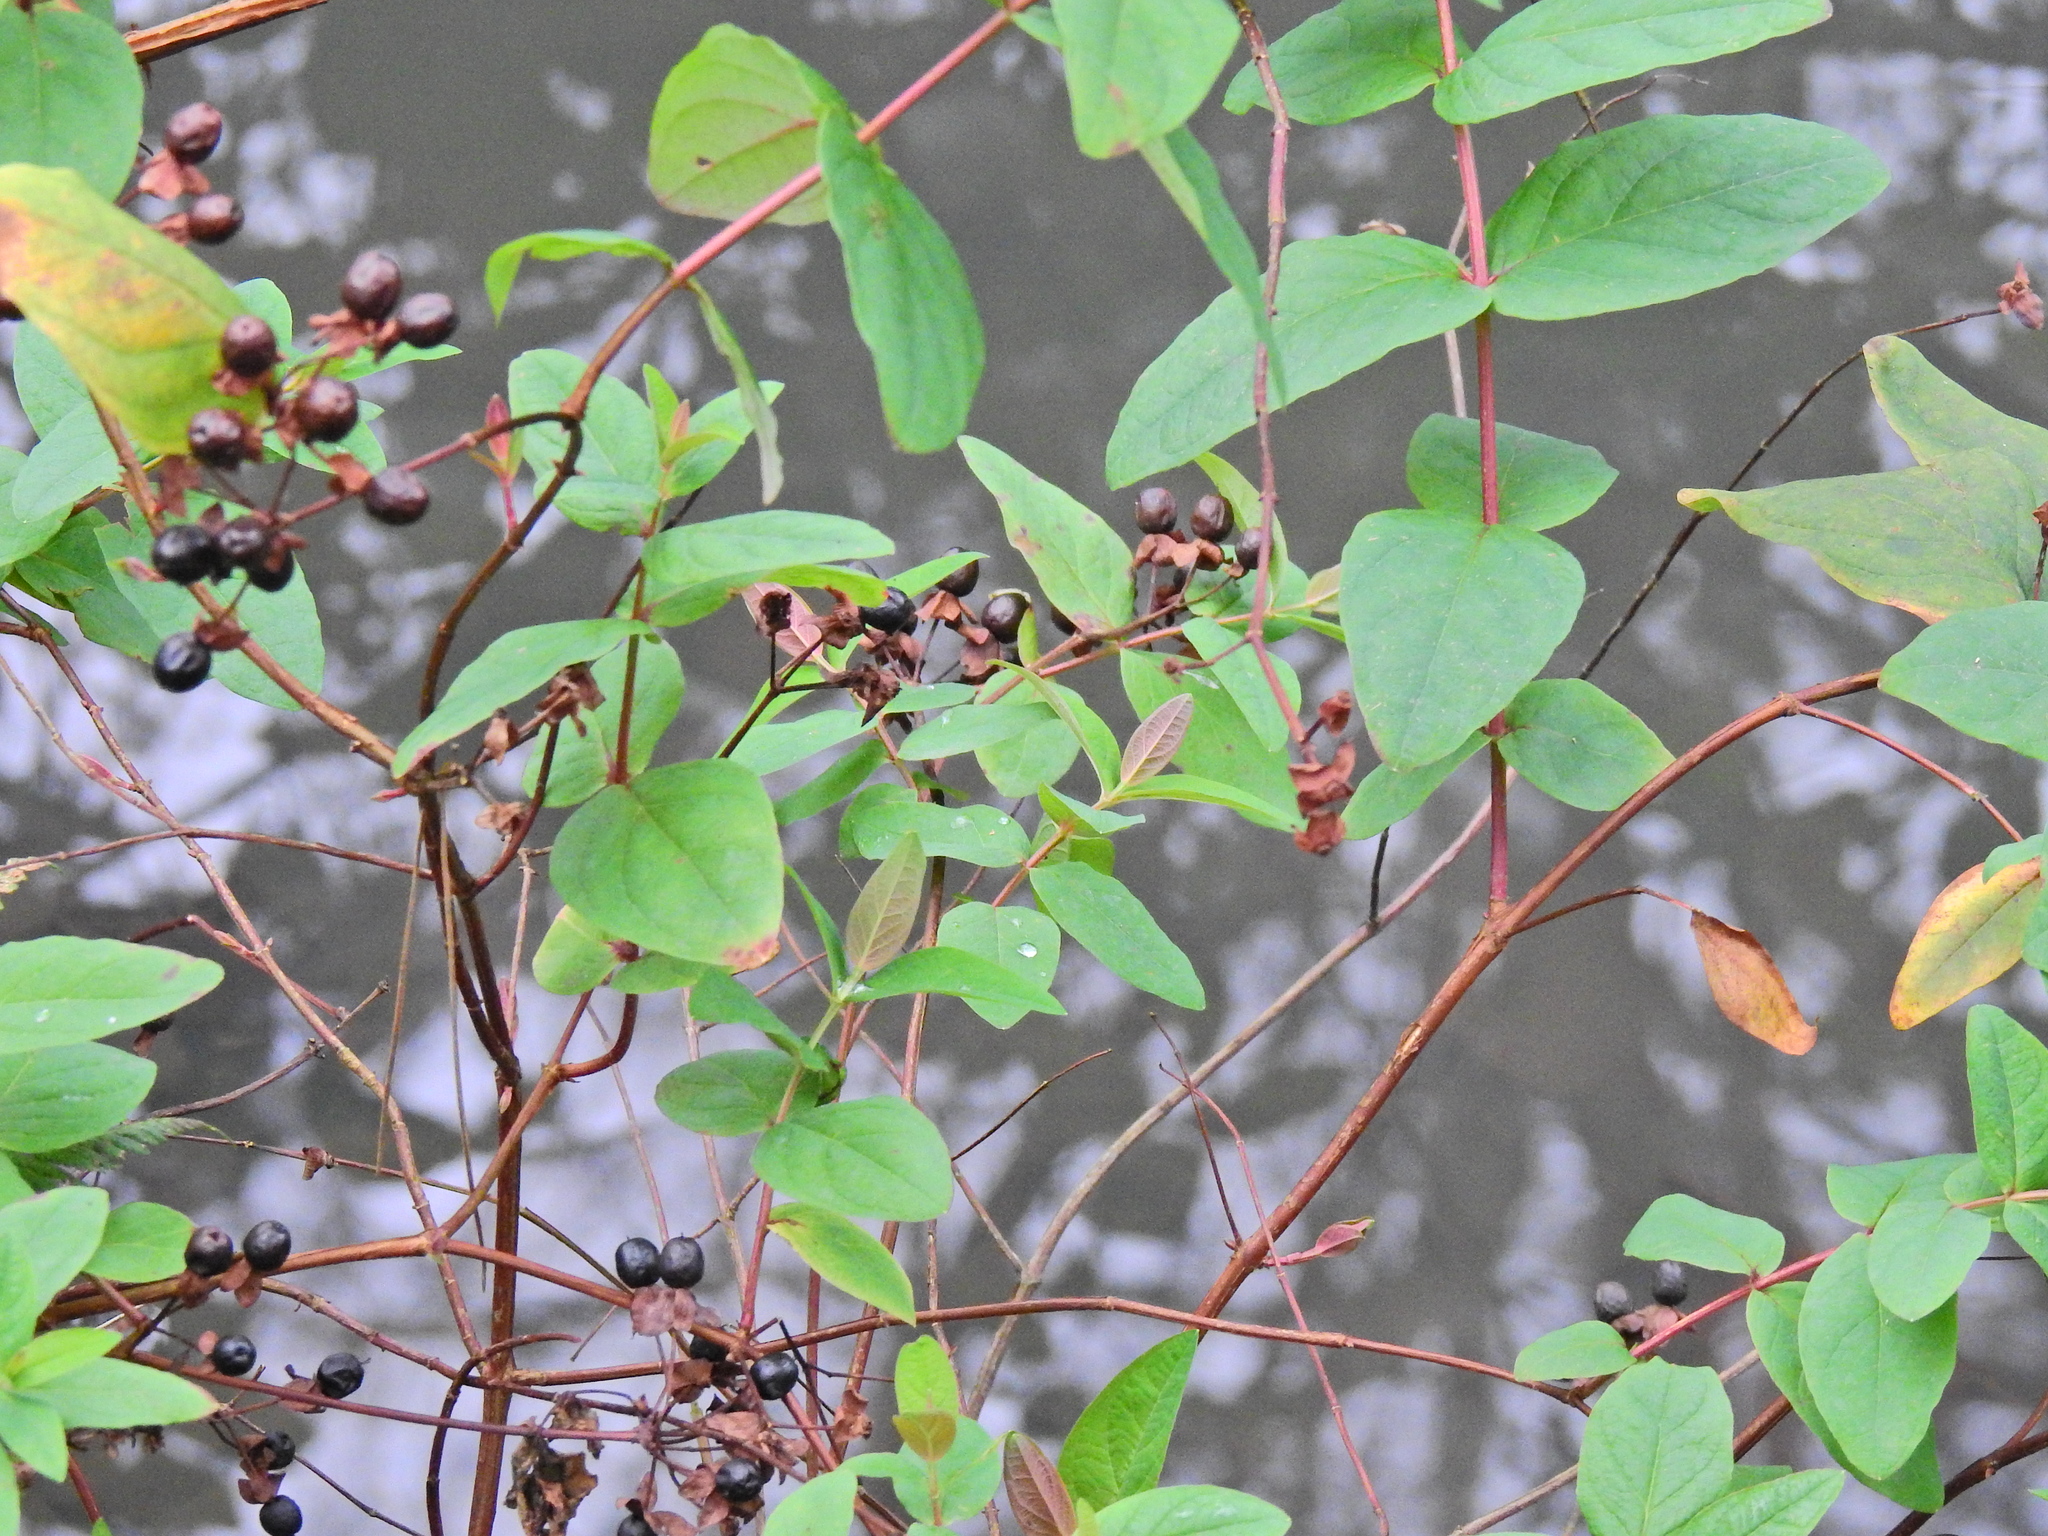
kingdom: Plantae
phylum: Tracheophyta
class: Magnoliopsida
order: Malpighiales
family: Hypericaceae
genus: Hypericum
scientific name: Hypericum androsaemum
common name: Sweet-amber
